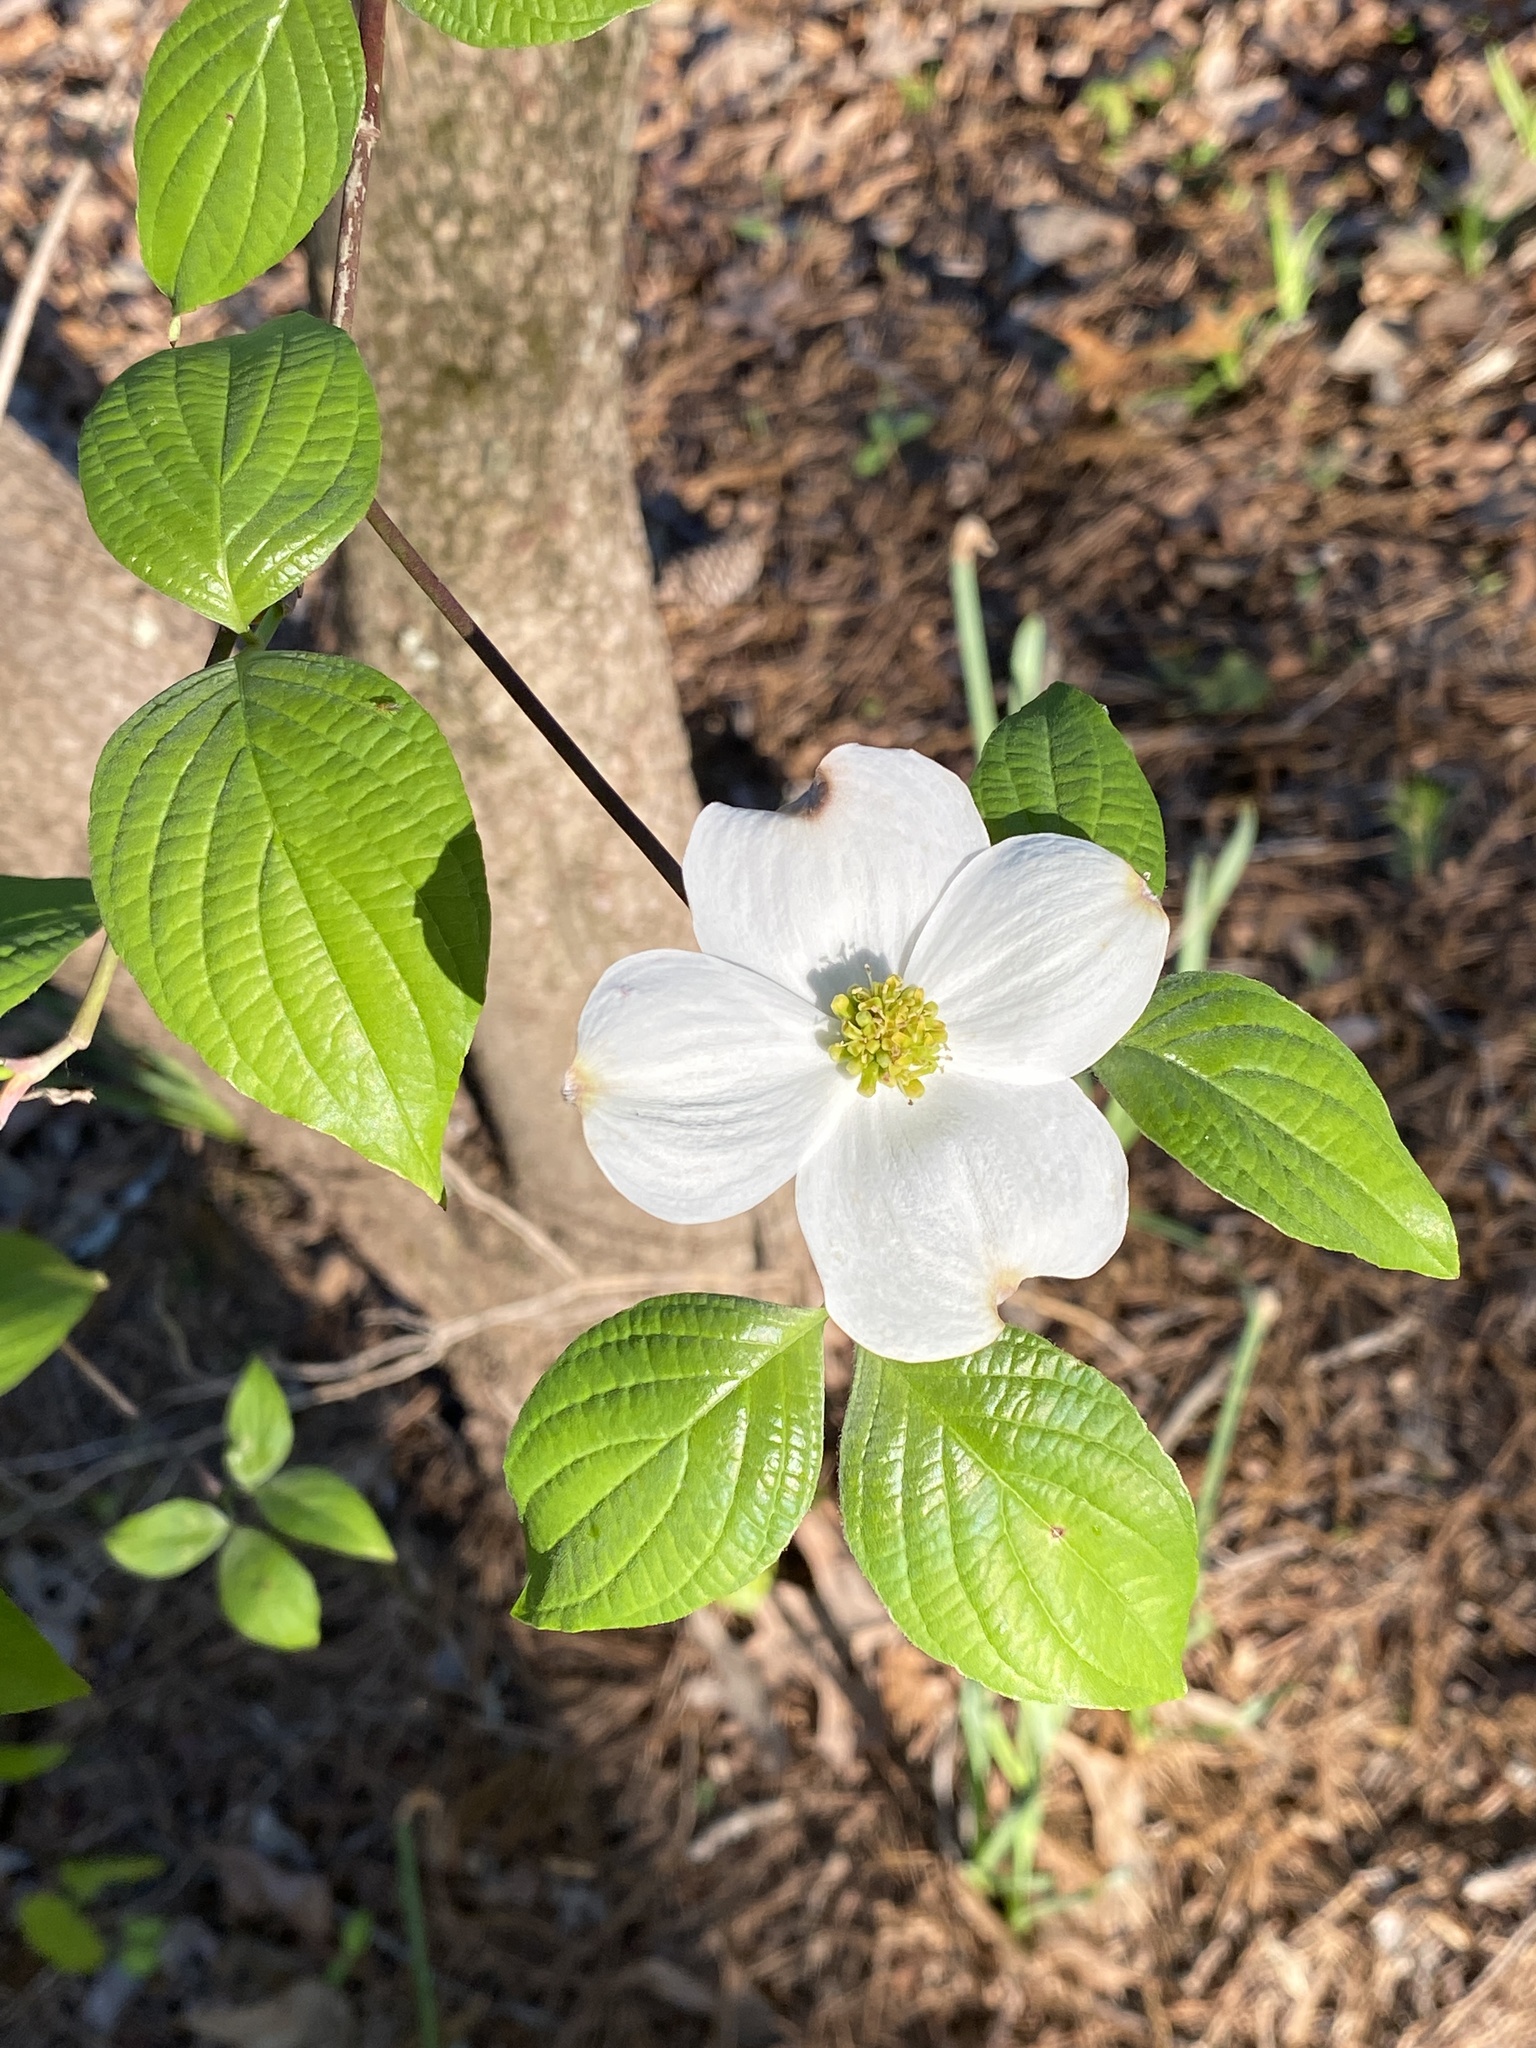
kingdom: Plantae
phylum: Tracheophyta
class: Magnoliopsida
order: Cornales
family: Cornaceae
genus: Cornus
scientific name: Cornus florida
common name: Flowering dogwood
